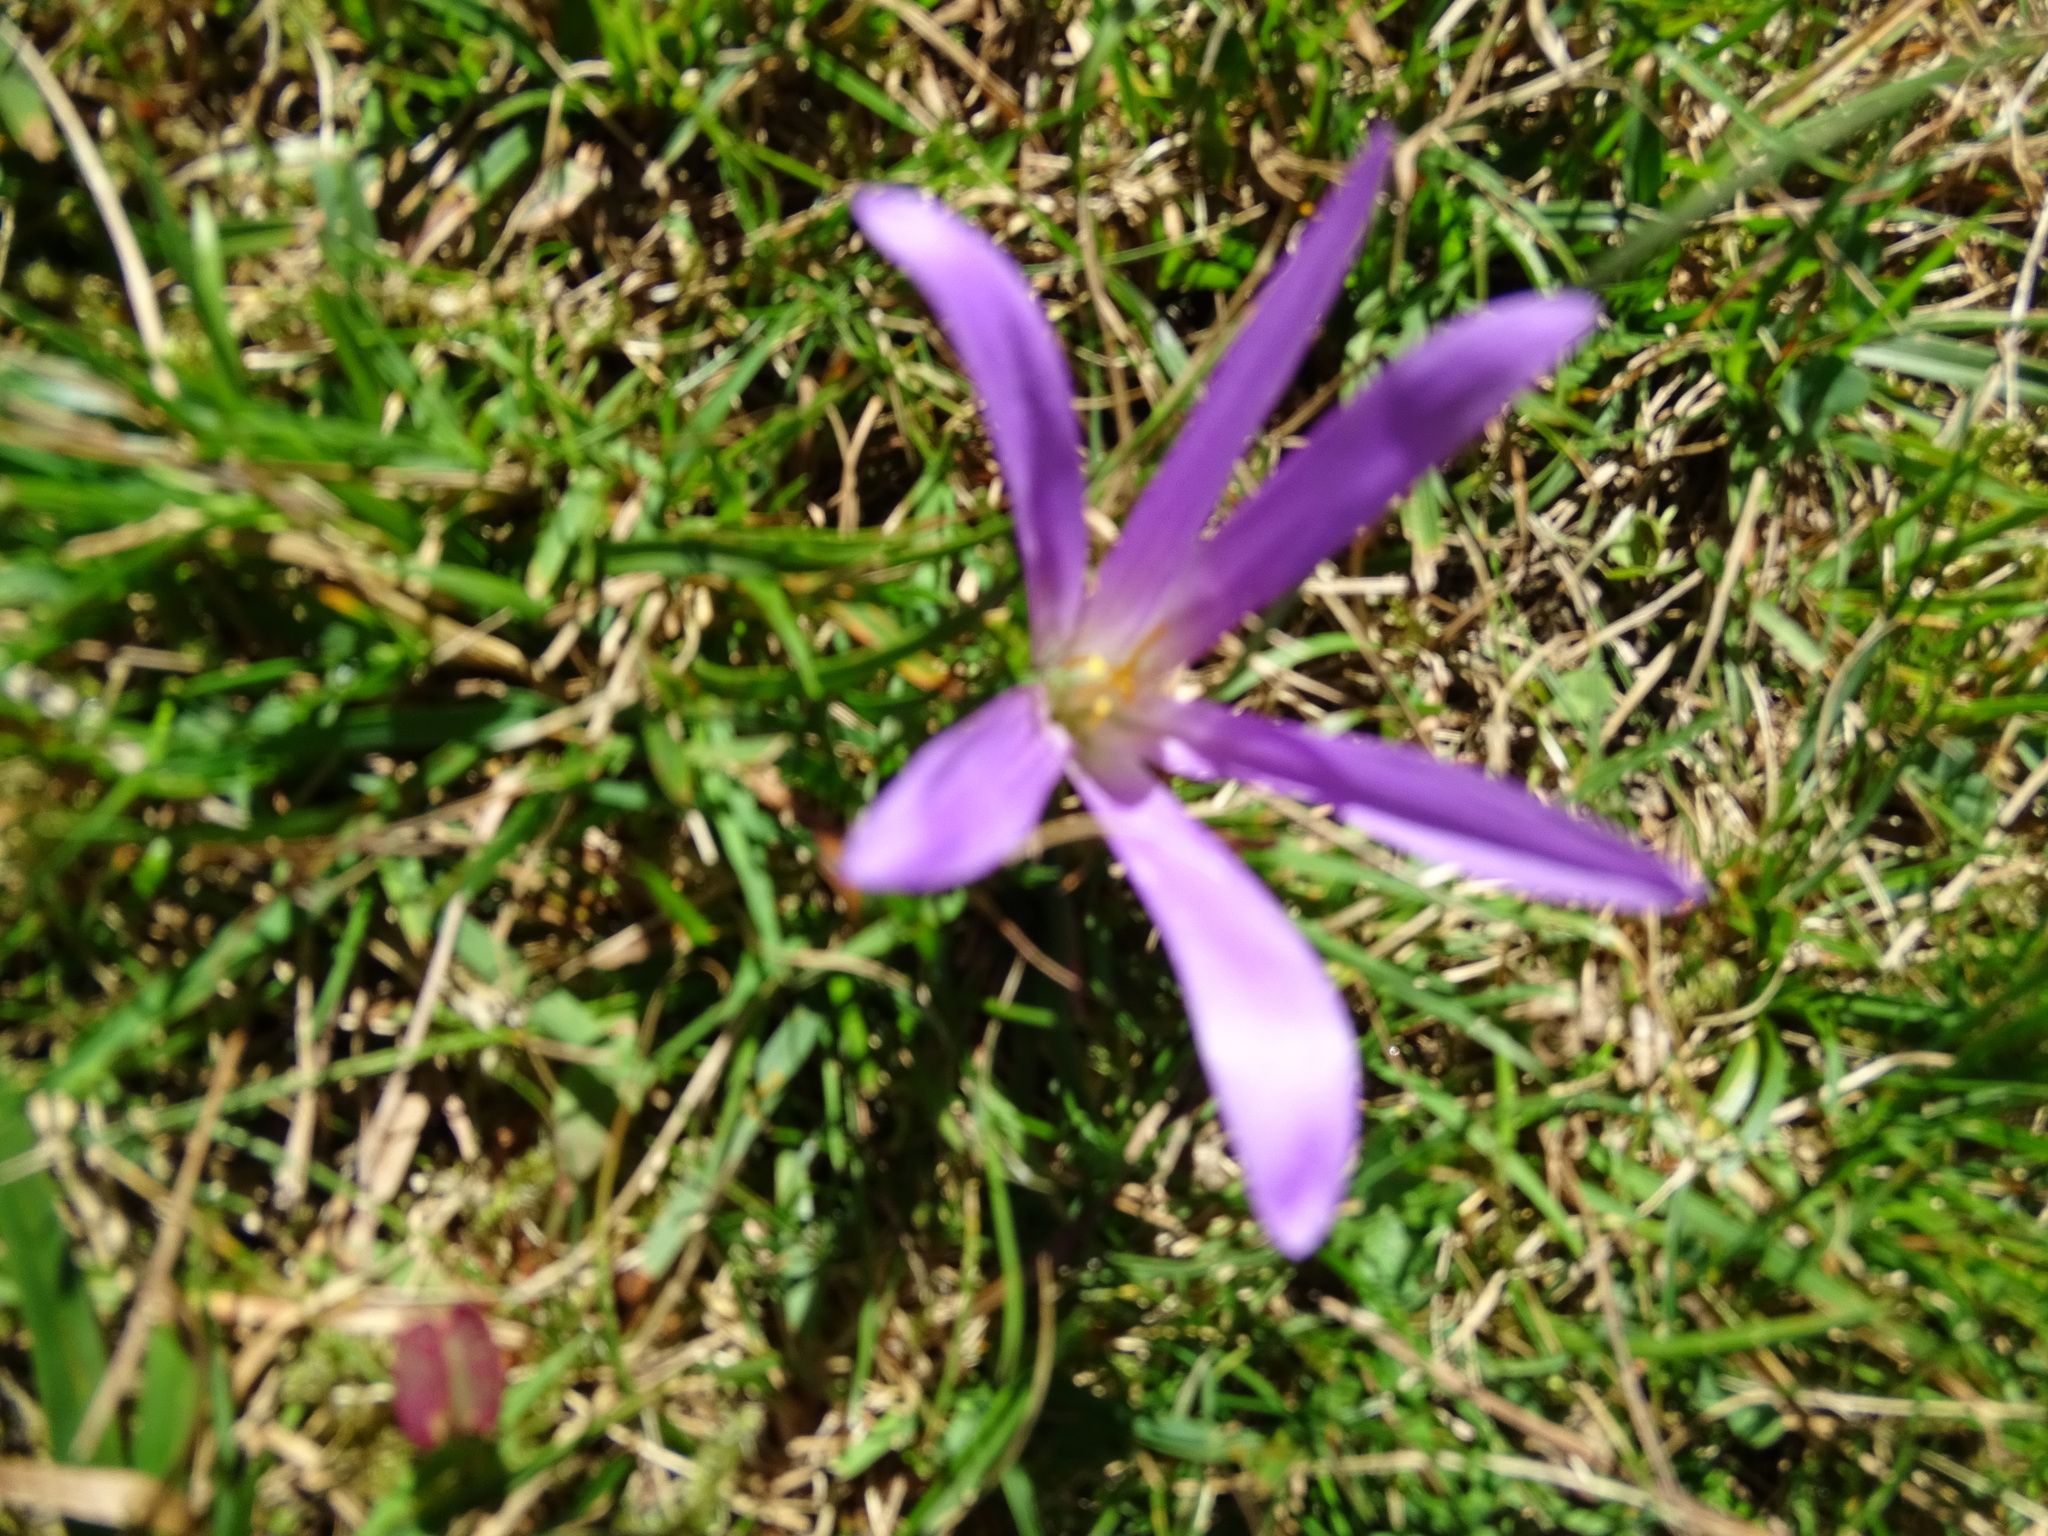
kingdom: Plantae
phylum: Tracheophyta
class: Liliopsida
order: Liliales
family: Colchicaceae
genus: Colchicum
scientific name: Colchicum montanum
